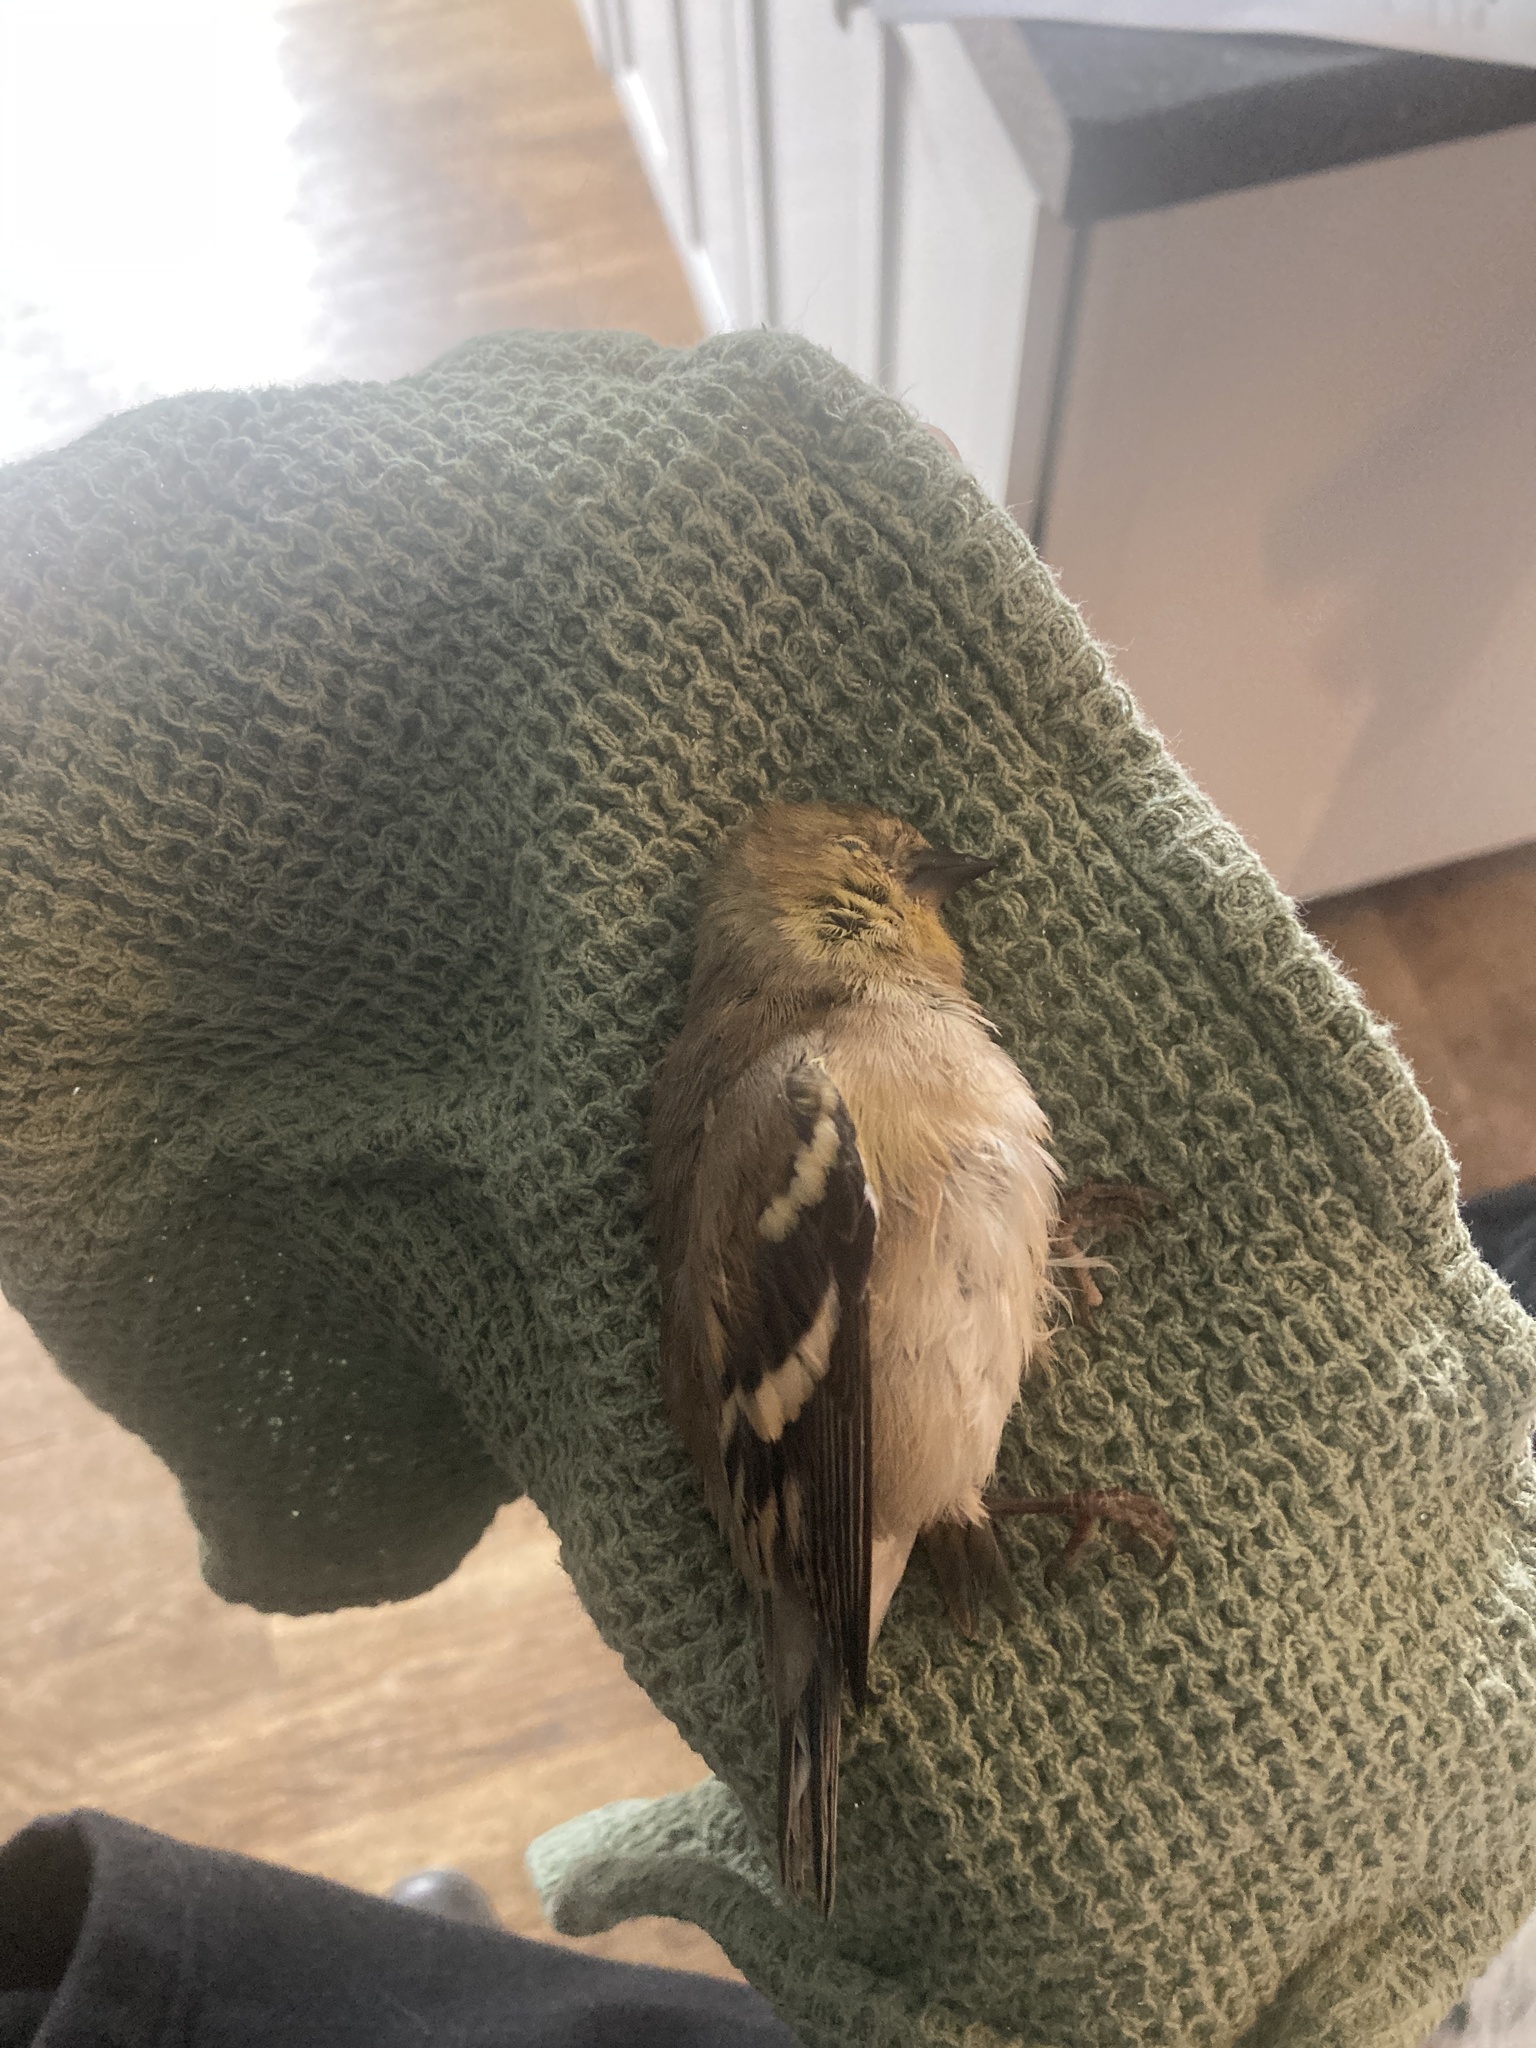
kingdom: Animalia
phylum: Chordata
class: Aves
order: Passeriformes
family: Fringillidae
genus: Spinus
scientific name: Spinus tristis
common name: American goldfinch
